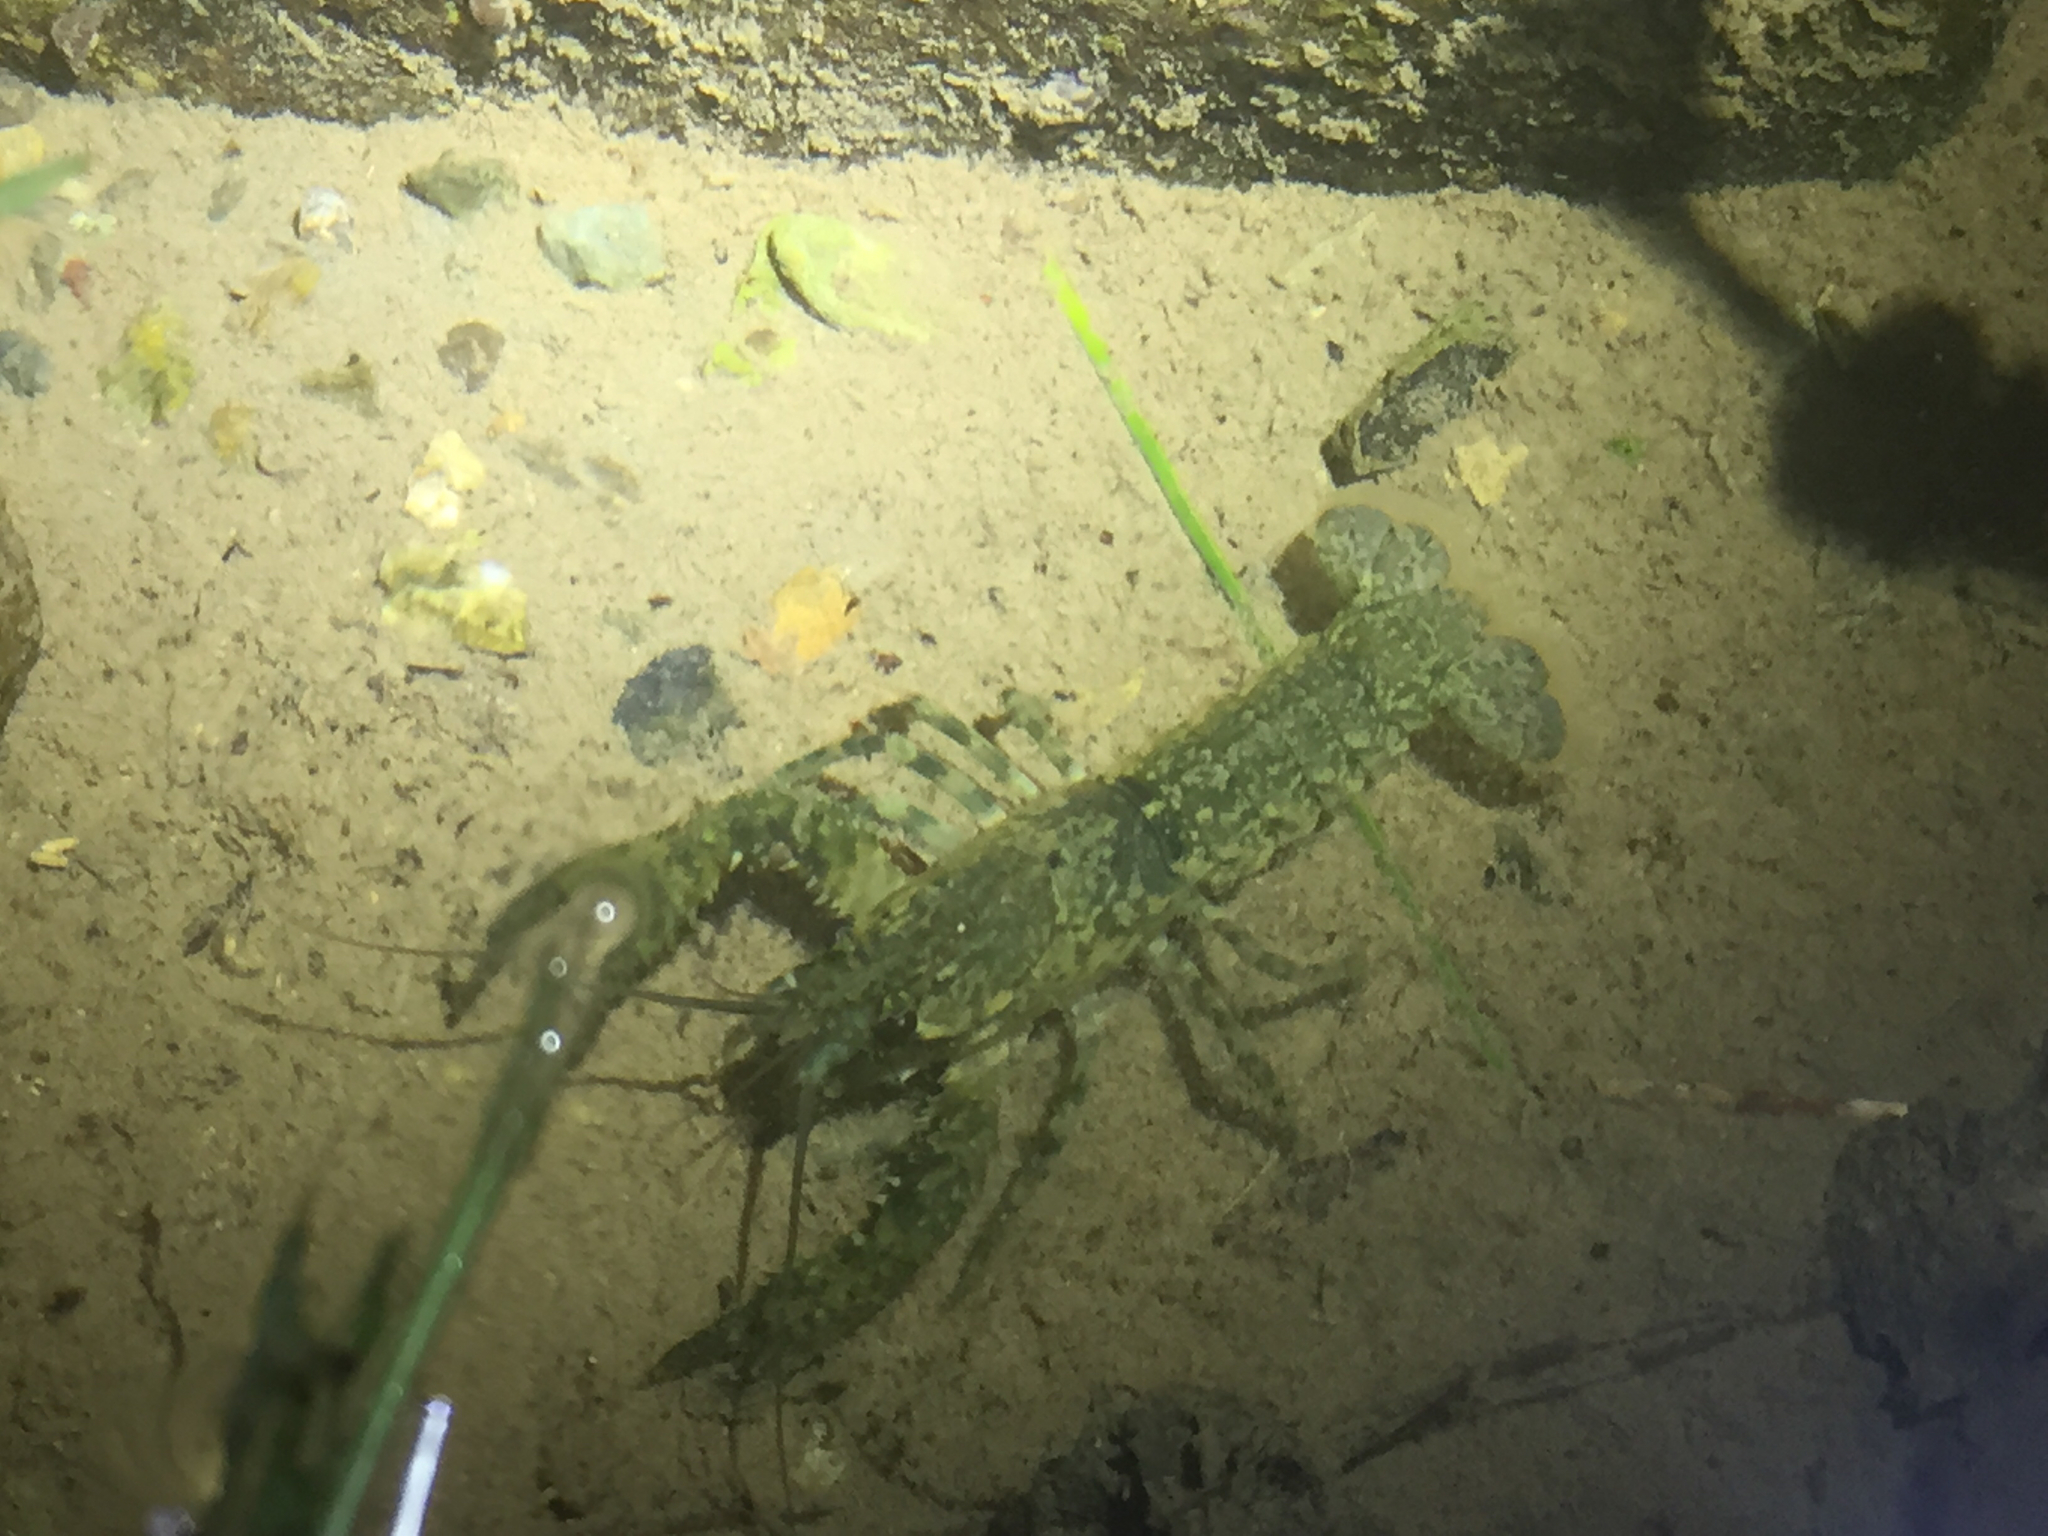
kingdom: Animalia
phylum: Arthropoda
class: Malacostraca
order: Decapoda
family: Parastacidae
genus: Paranephrops
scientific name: Paranephrops planifrons
